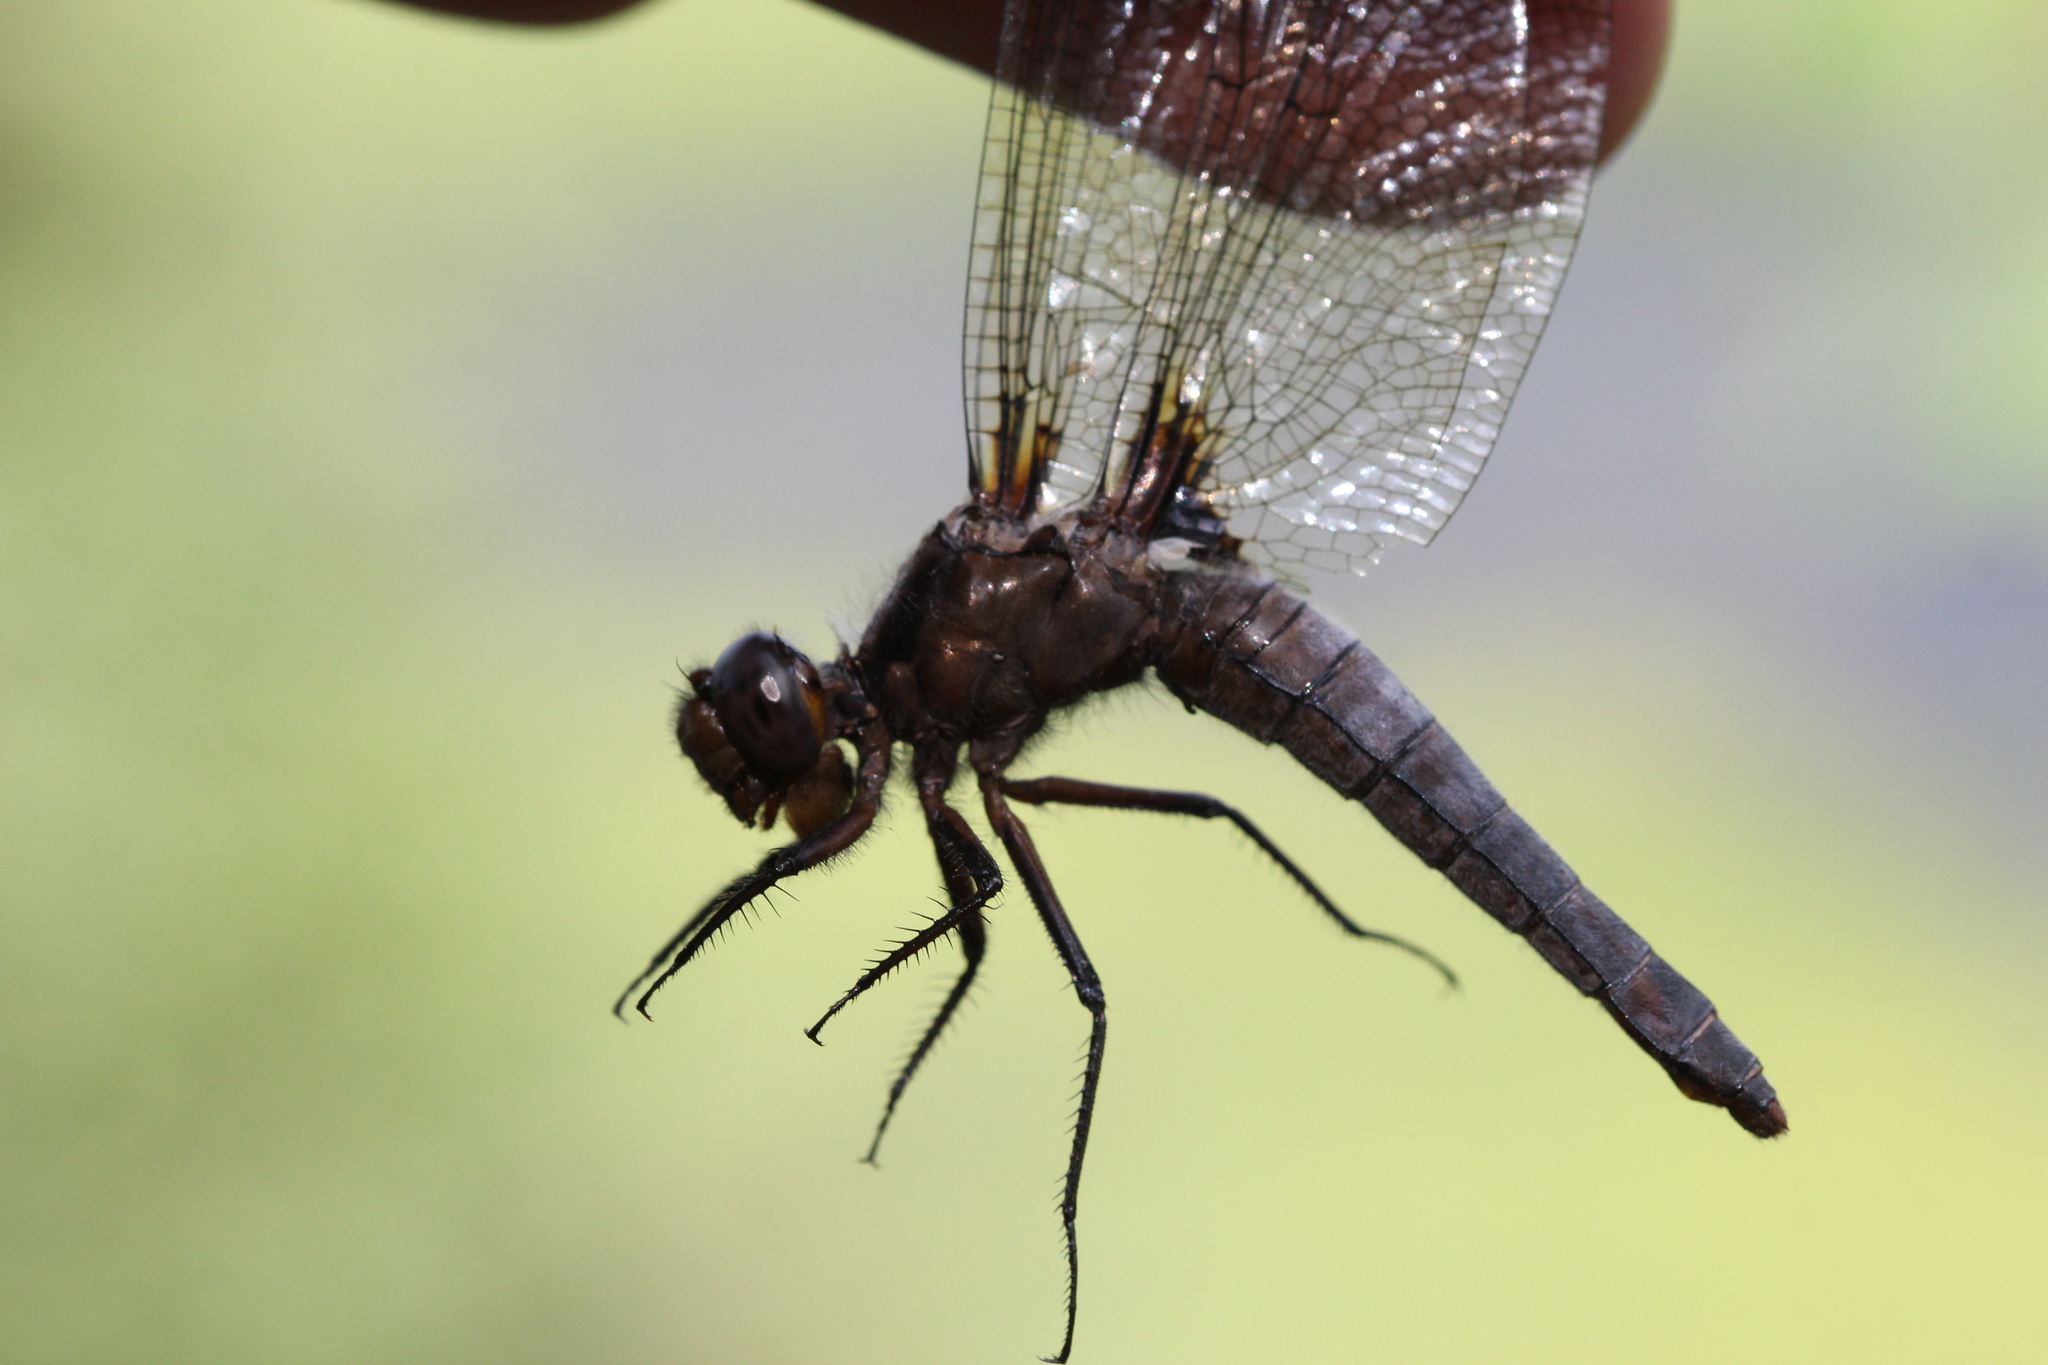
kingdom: Animalia
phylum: Arthropoda
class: Insecta
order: Odonata
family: Libellulidae
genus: Ladona
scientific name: Ladona julia
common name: Chalk-fronted corporal
